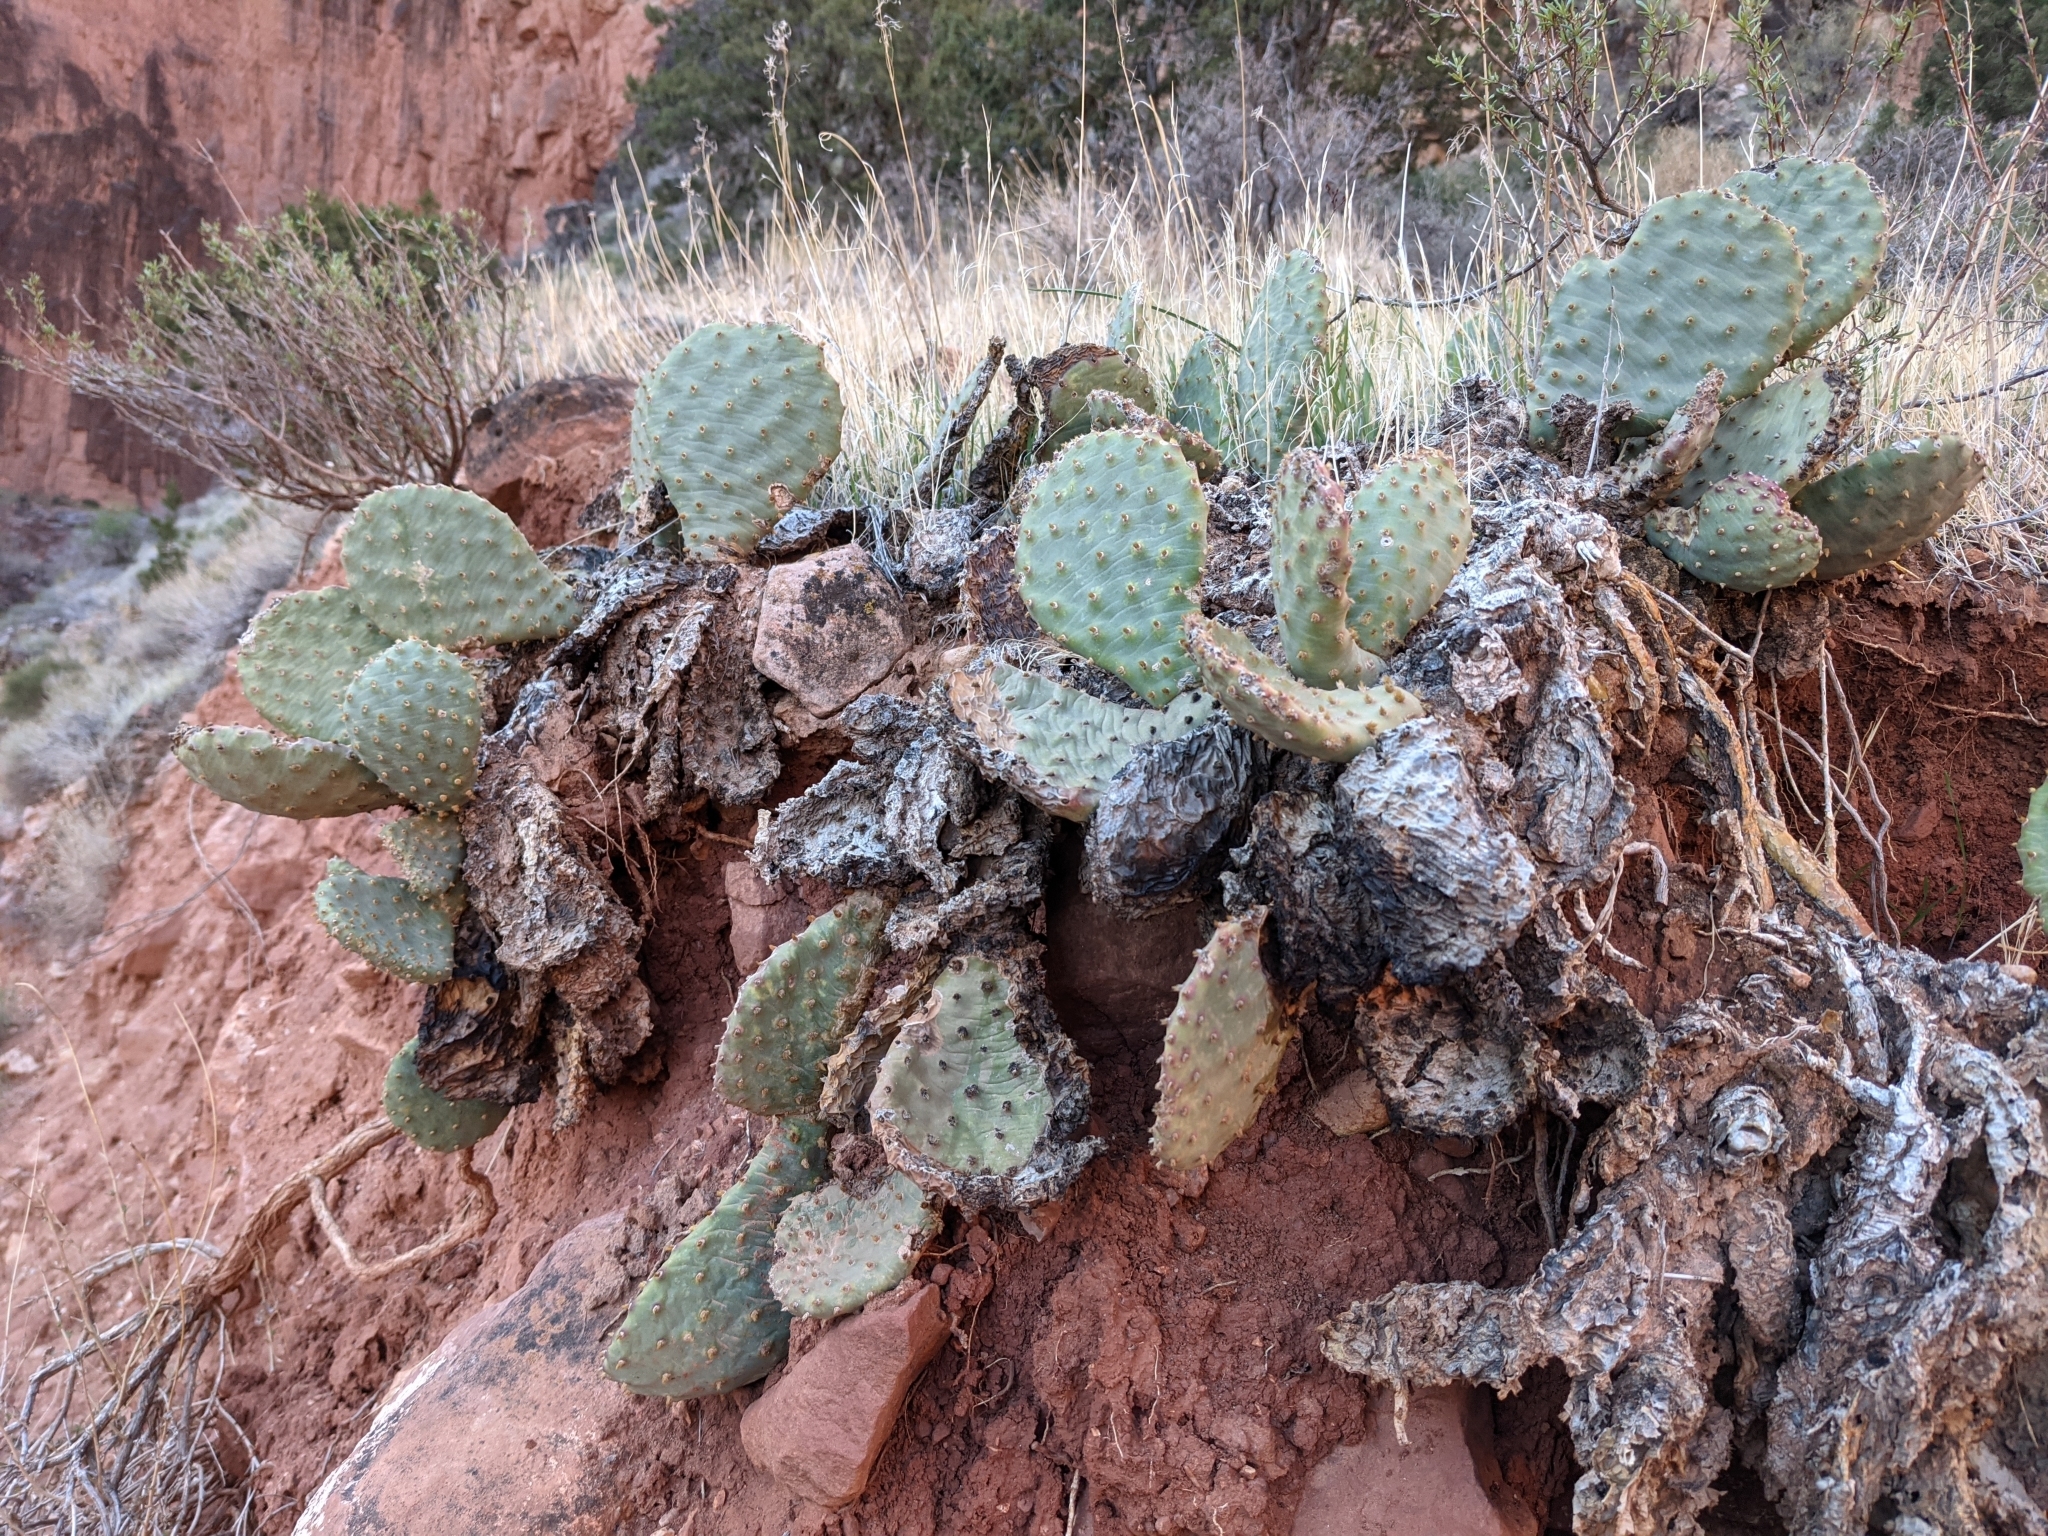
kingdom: Plantae
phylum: Tracheophyta
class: Magnoliopsida
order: Caryophyllales
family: Cactaceae
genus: Opuntia
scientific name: Opuntia basilaris
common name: Beavertail prickly-pear
